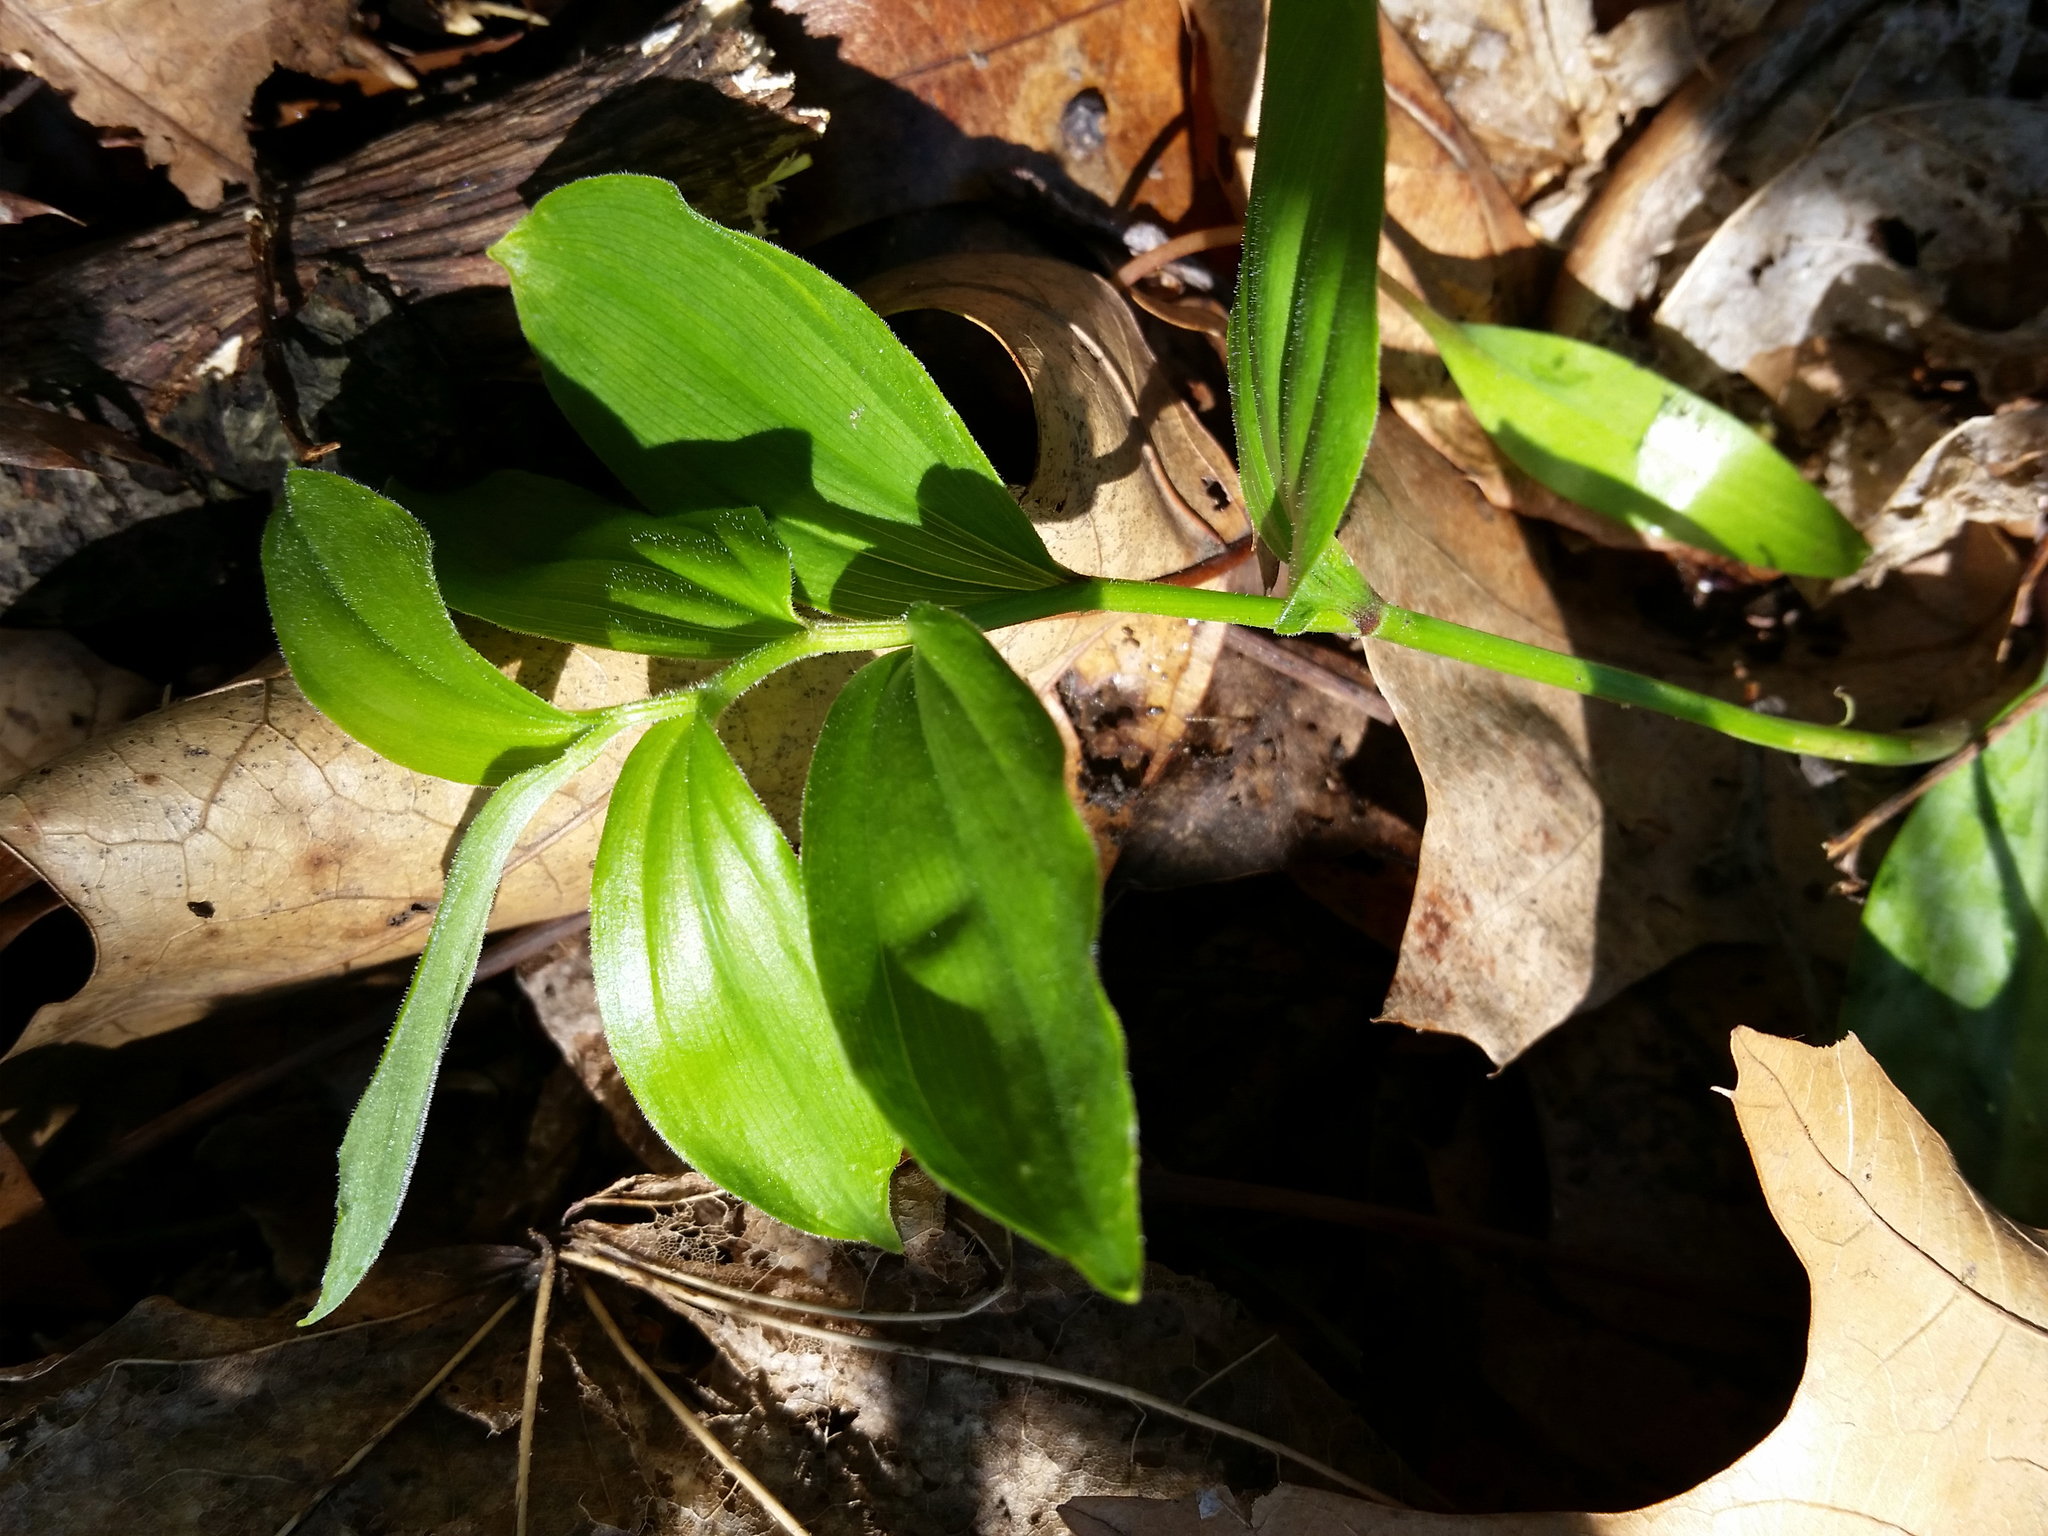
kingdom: Plantae
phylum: Tracheophyta
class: Liliopsida
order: Asparagales
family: Asparagaceae
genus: Maianthemum
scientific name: Maianthemum racemosum
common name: False spikenard
